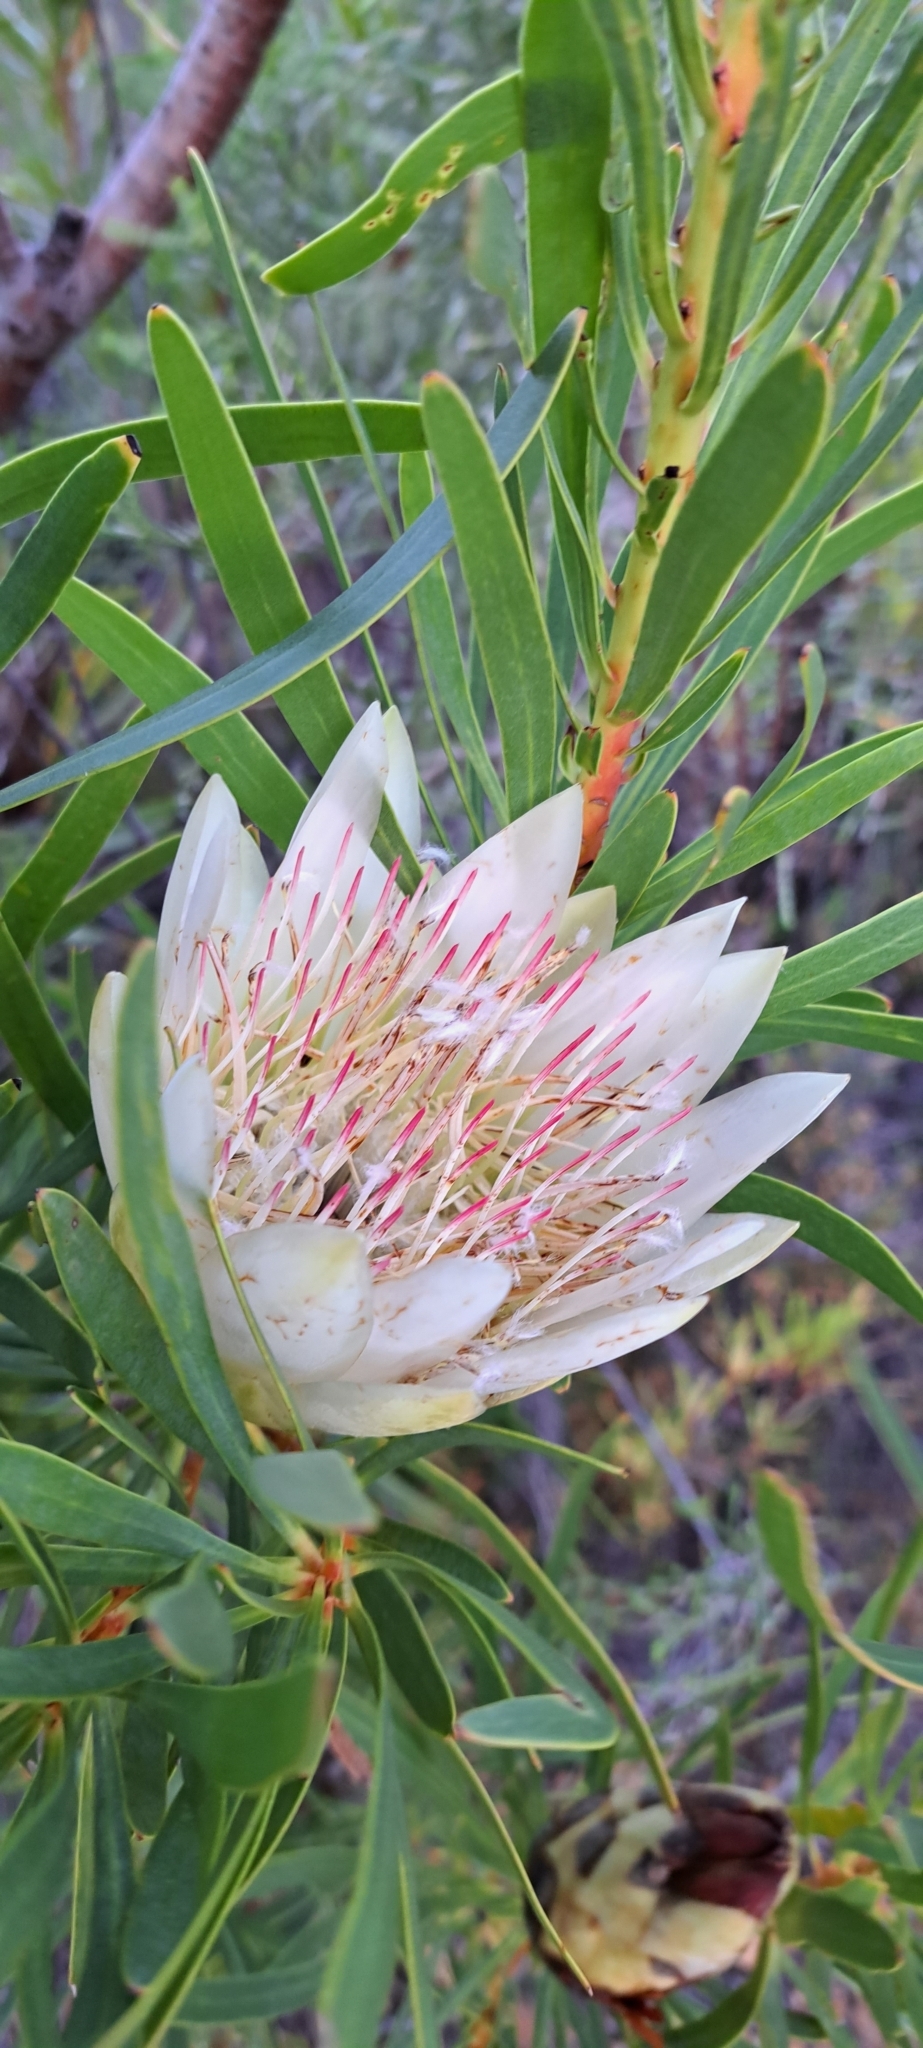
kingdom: Plantae
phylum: Tracheophyta
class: Magnoliopsida
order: Proteales
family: Proteaceae
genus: Protea
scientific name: Protea repens
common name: Sugarbush
